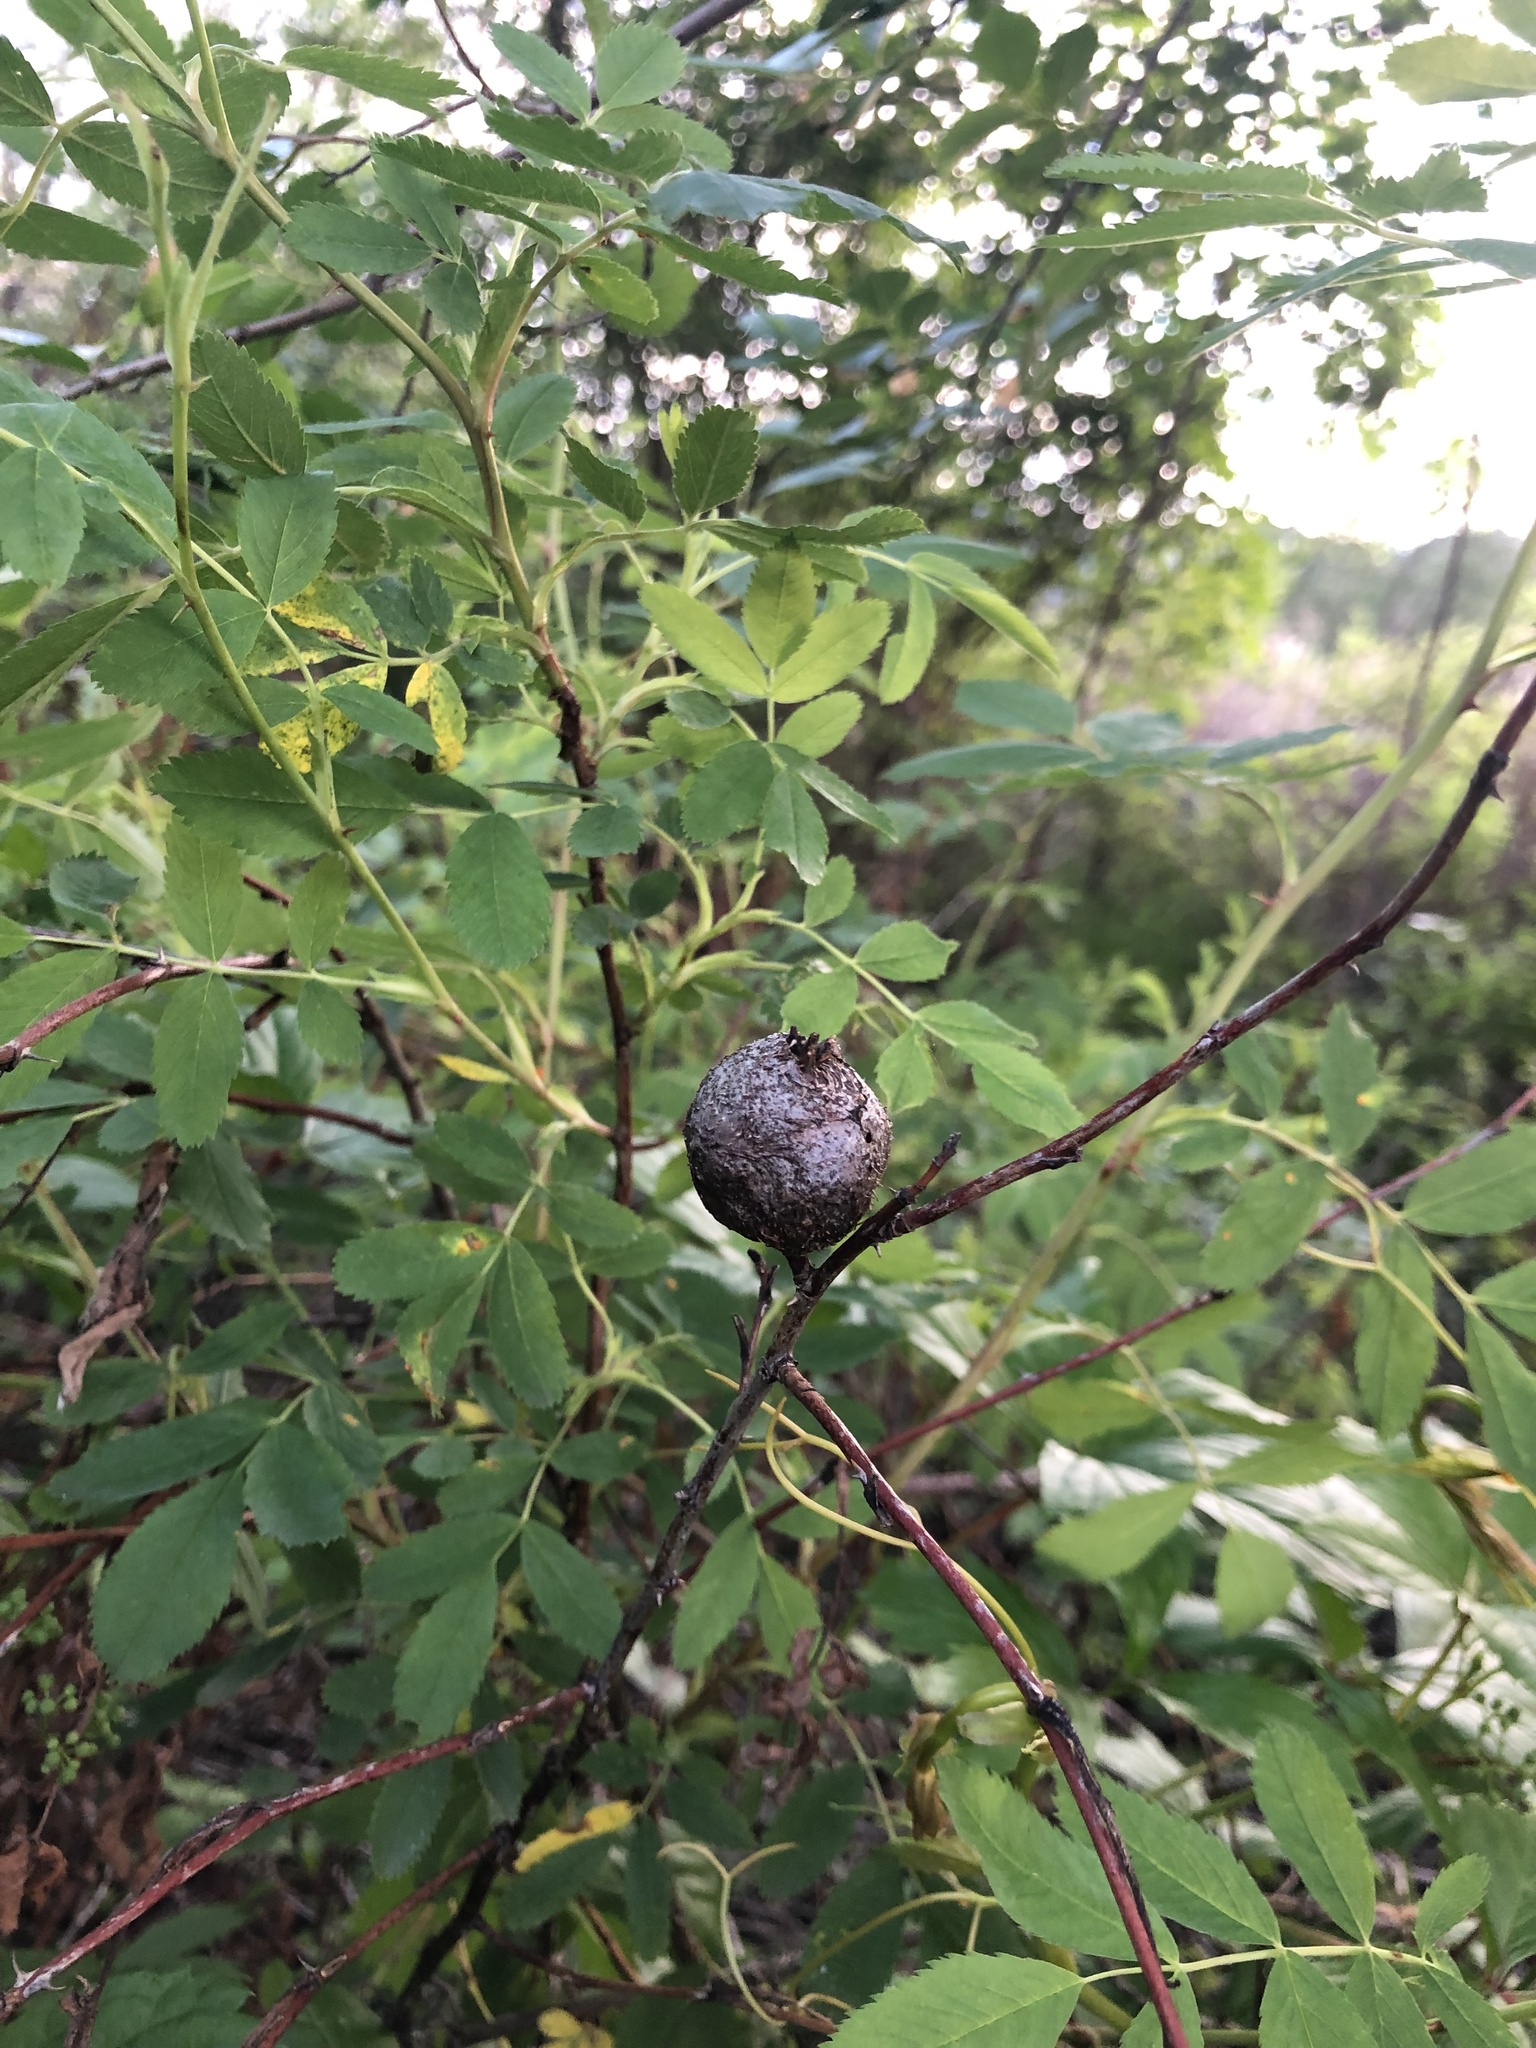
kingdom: Animalia
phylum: Arthropoda
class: Insecta
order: Diptera
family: Cecidomyiidae
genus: Rabdophaga
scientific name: Rabdophaga strobiloides
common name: Willow pinecone gall midge
